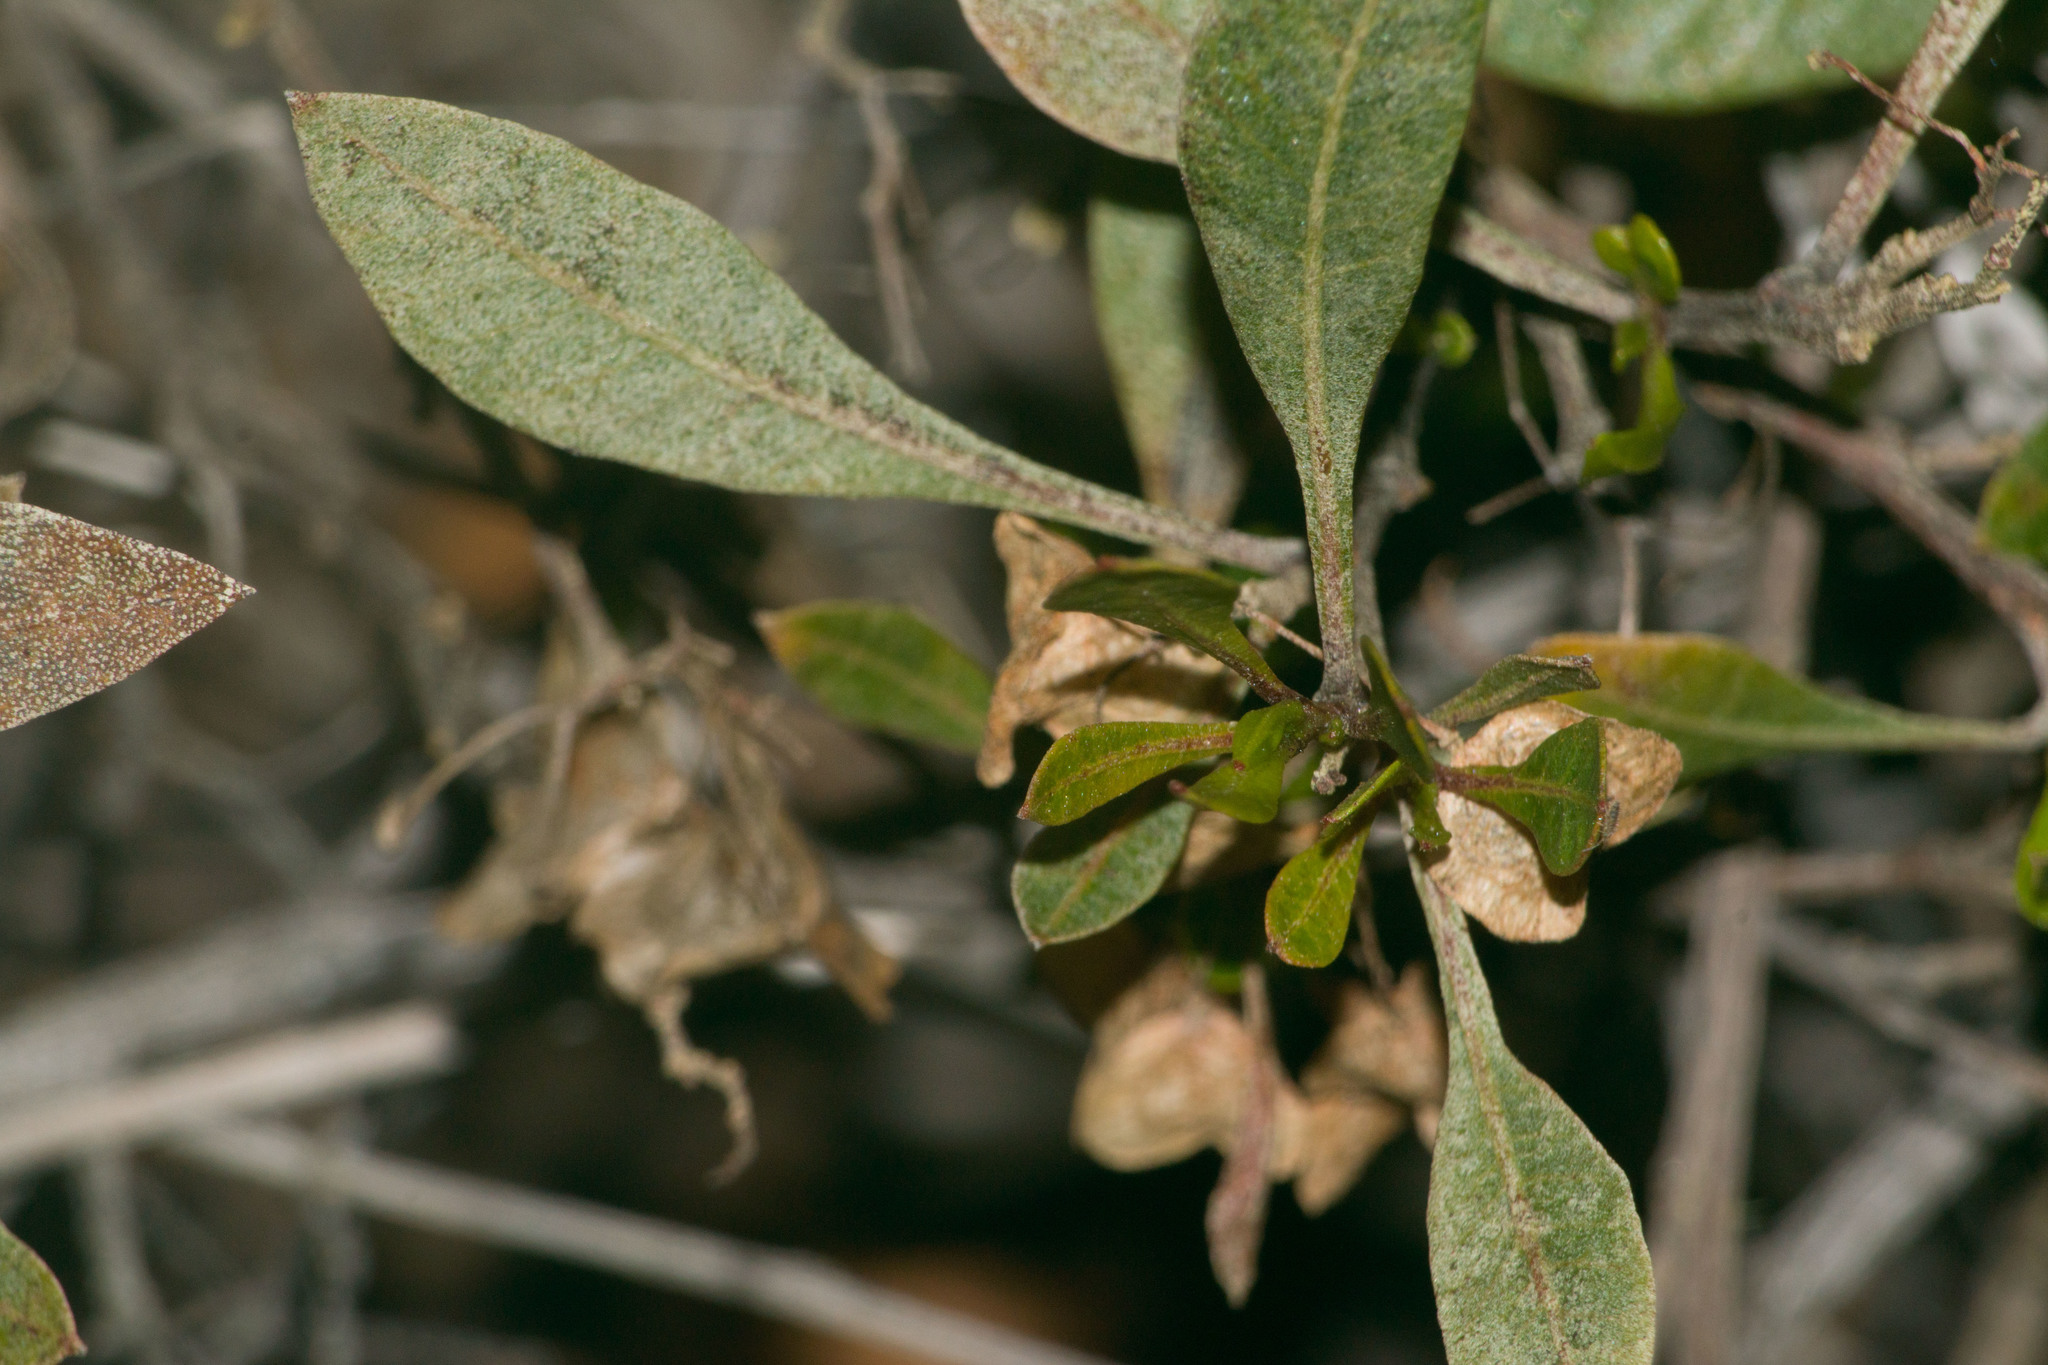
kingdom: Plantae
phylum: Tracheophyta
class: Magnoliopsida
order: Sapindales
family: Sapindaceae
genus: Dodonaea
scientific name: Dodonaea viscosa
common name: Hopbush
